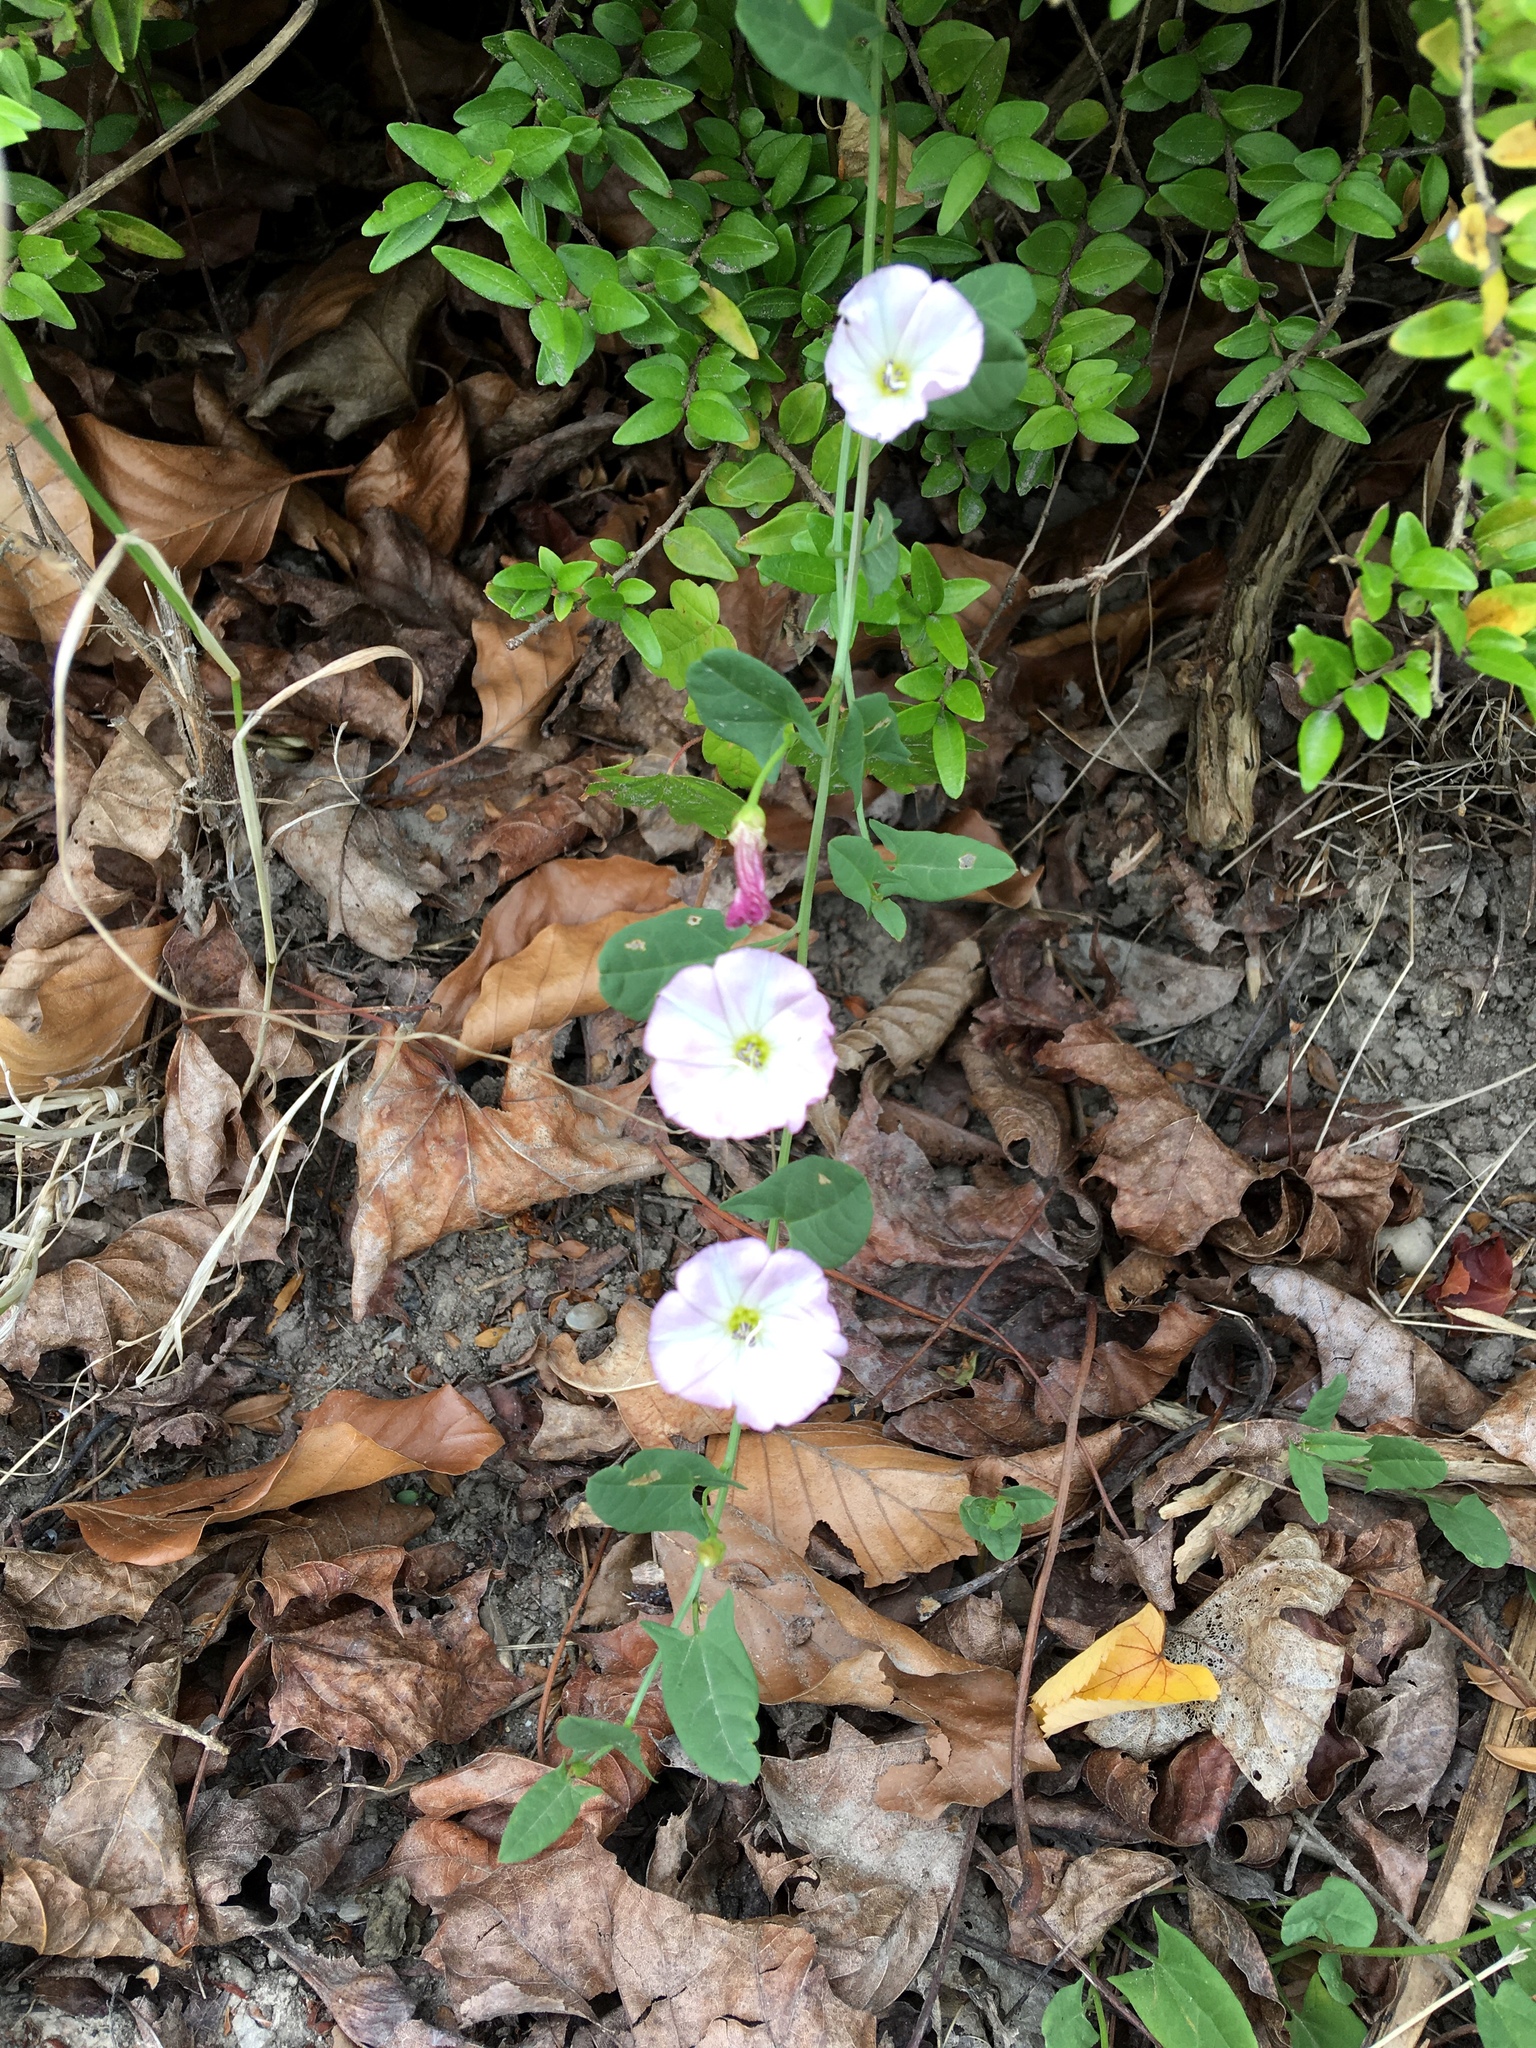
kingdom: Plantae
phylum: Tracheophyta
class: Magnoliopsida
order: Solanales
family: Convolvulaceae
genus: Convolvulus
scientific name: Convolvulus arvensis
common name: Field bindweed
